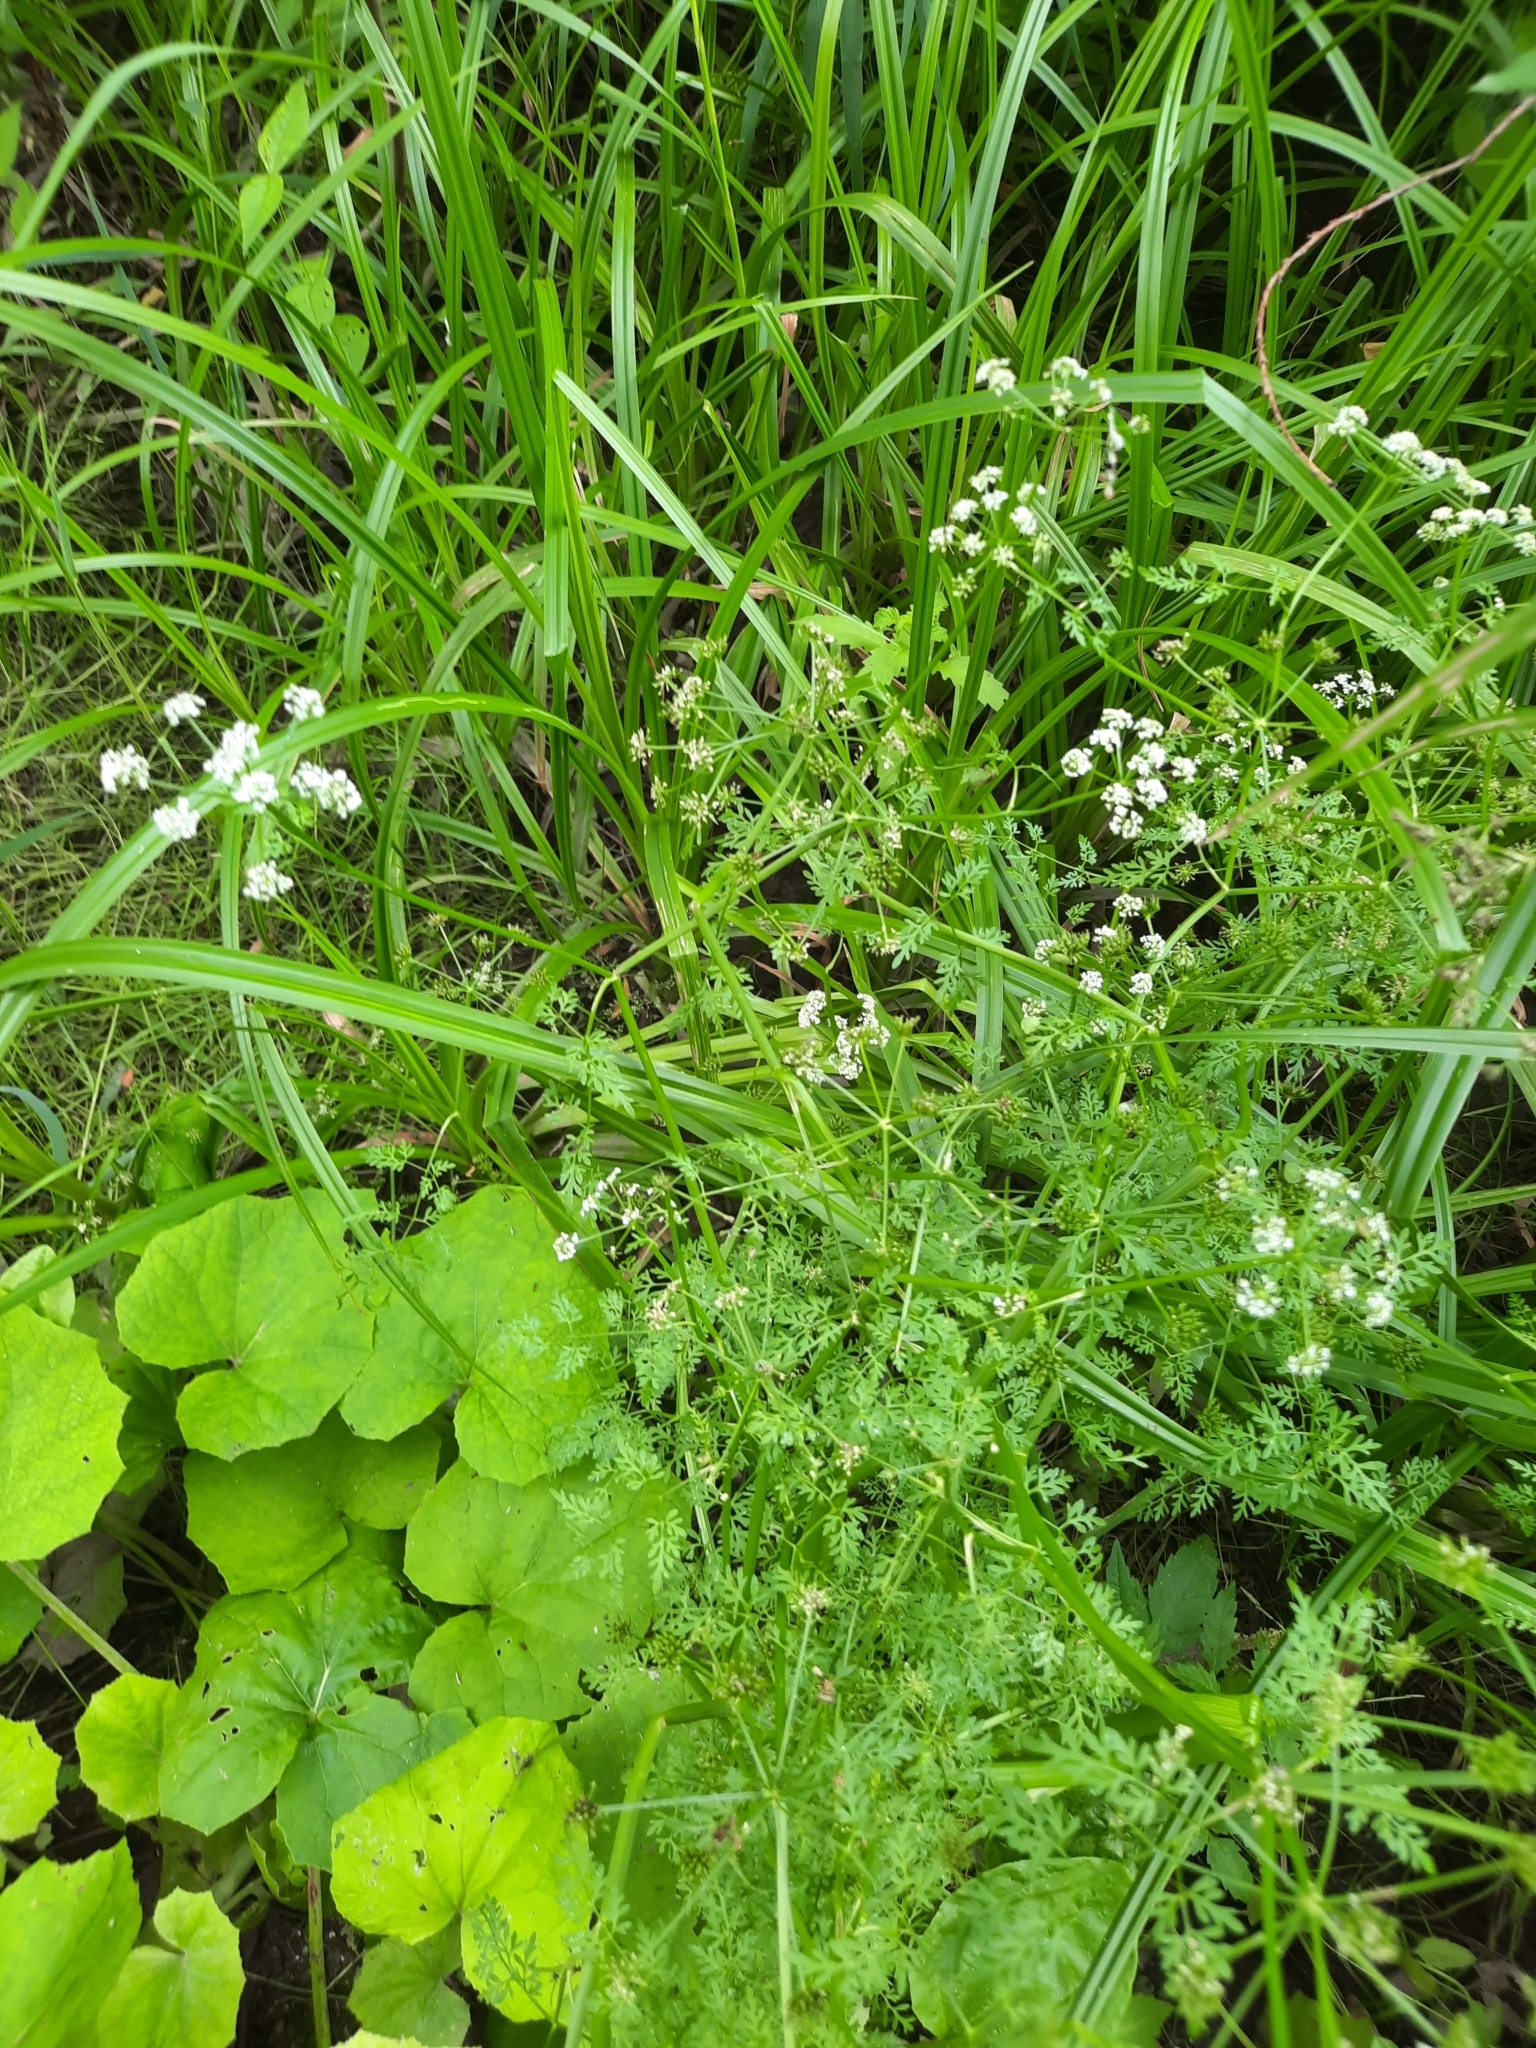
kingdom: Plantae
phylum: Tracheophyta
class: Magnoliopsida
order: Apiales
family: Apiaceae
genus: Oenanthe
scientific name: Oenanthe aquatica
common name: Fine-leaved water-dropwort
